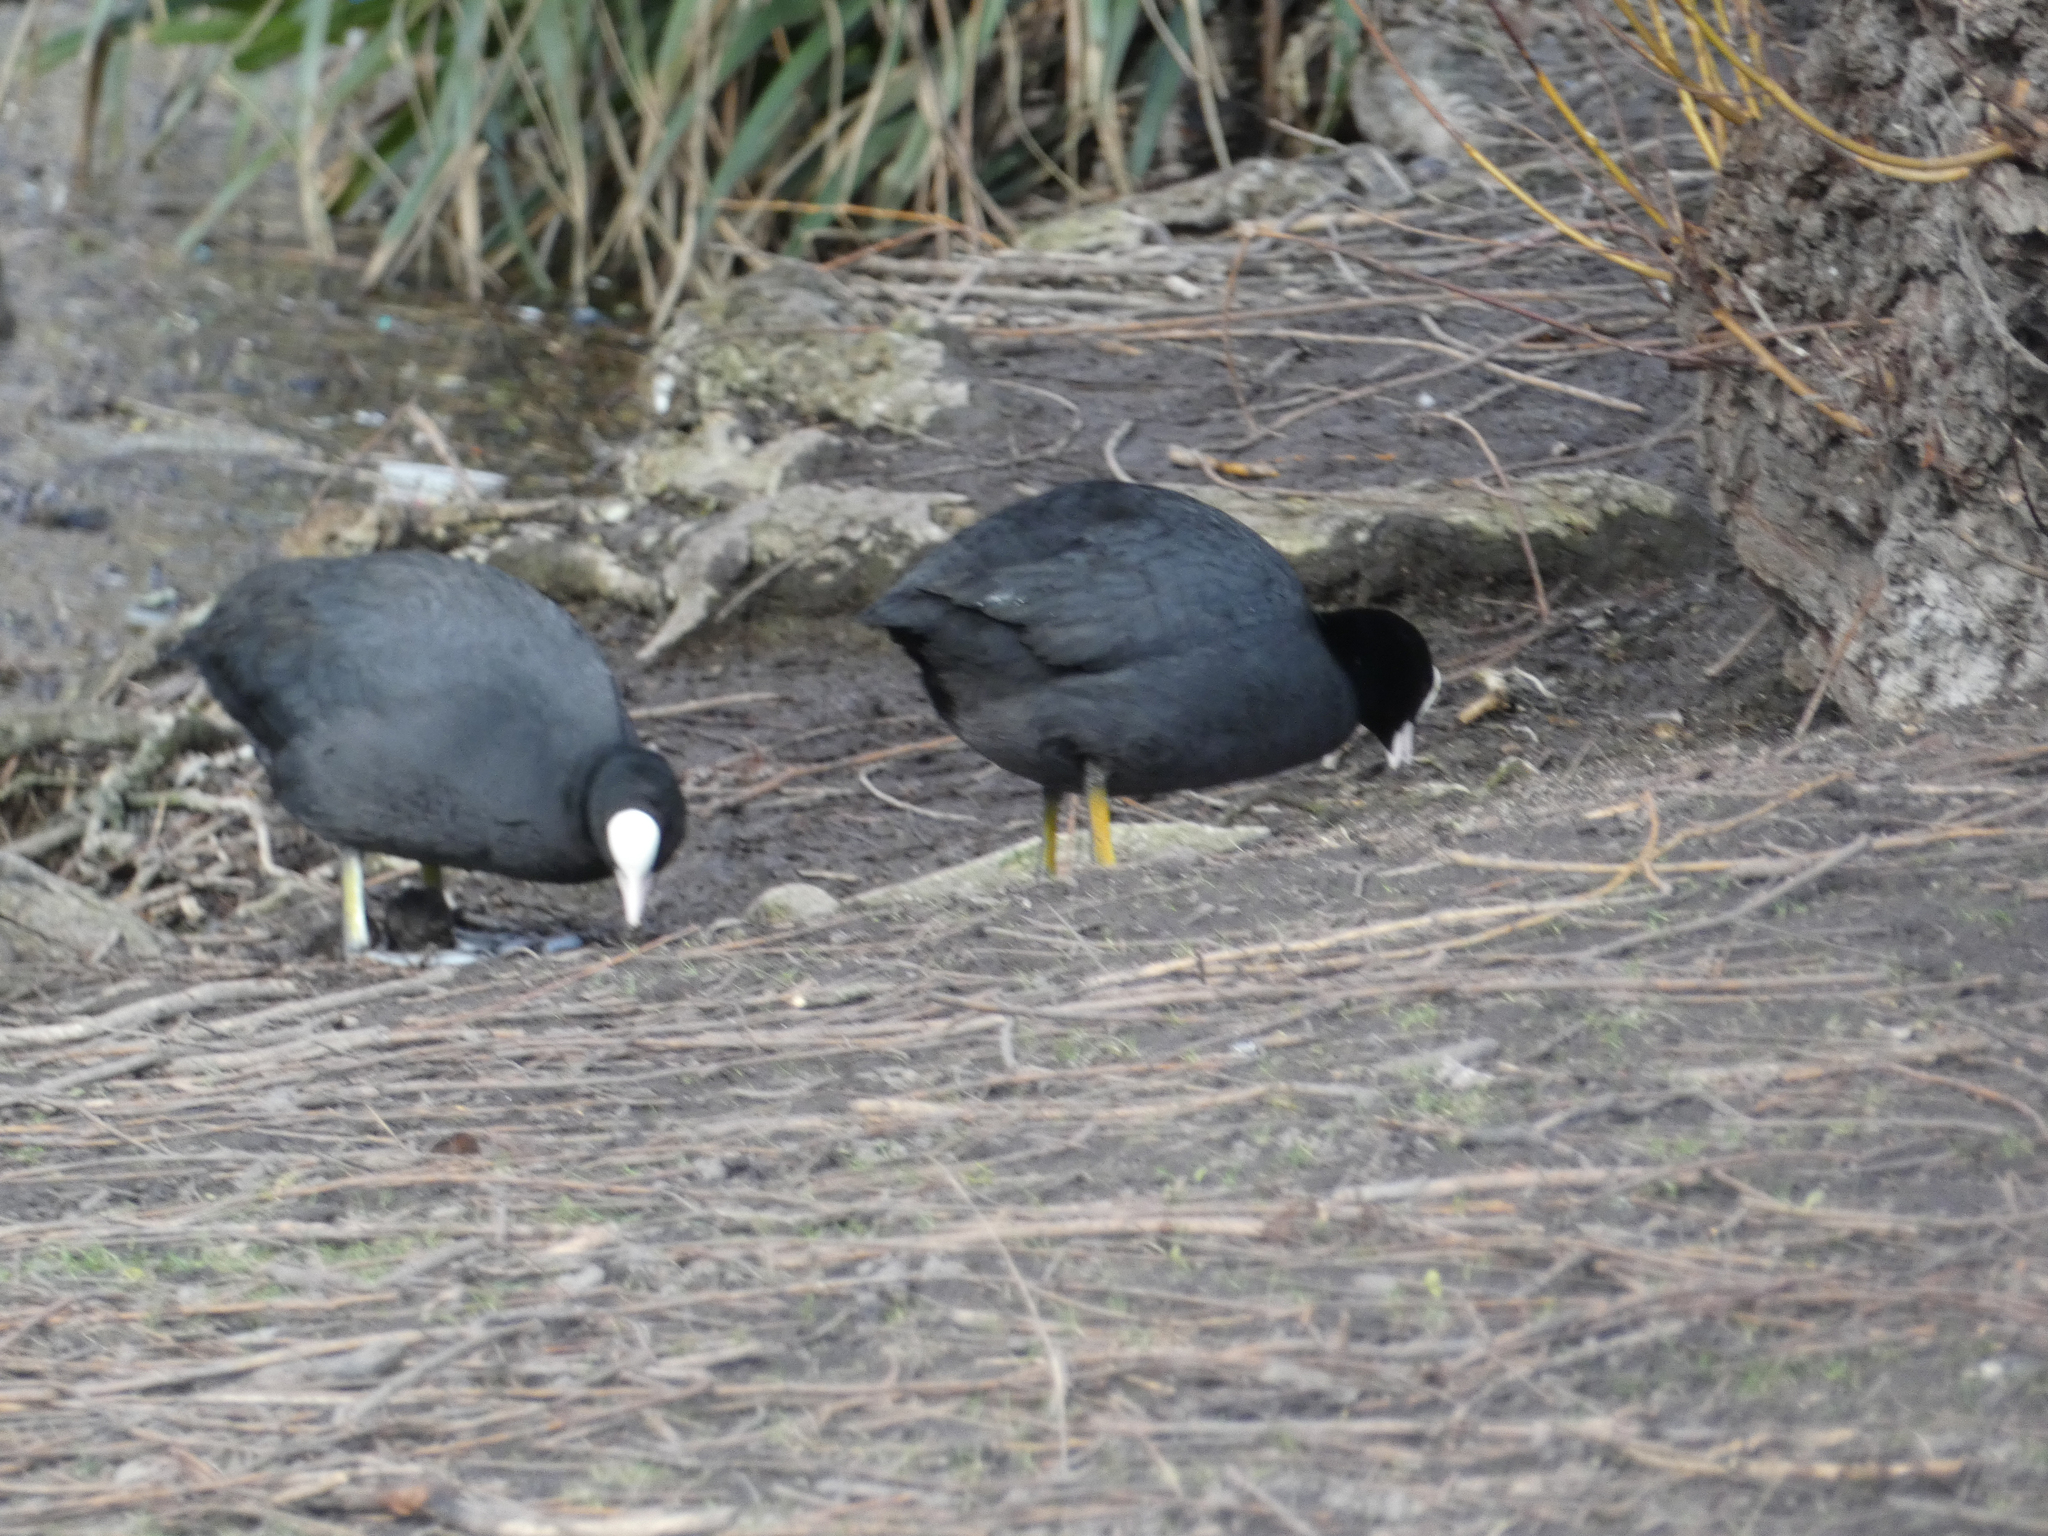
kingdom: Animalia
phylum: Chordata
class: Aves
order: Gruiformes
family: Rallidae
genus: Fulica
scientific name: Fulica atra
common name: Eurasian coot
